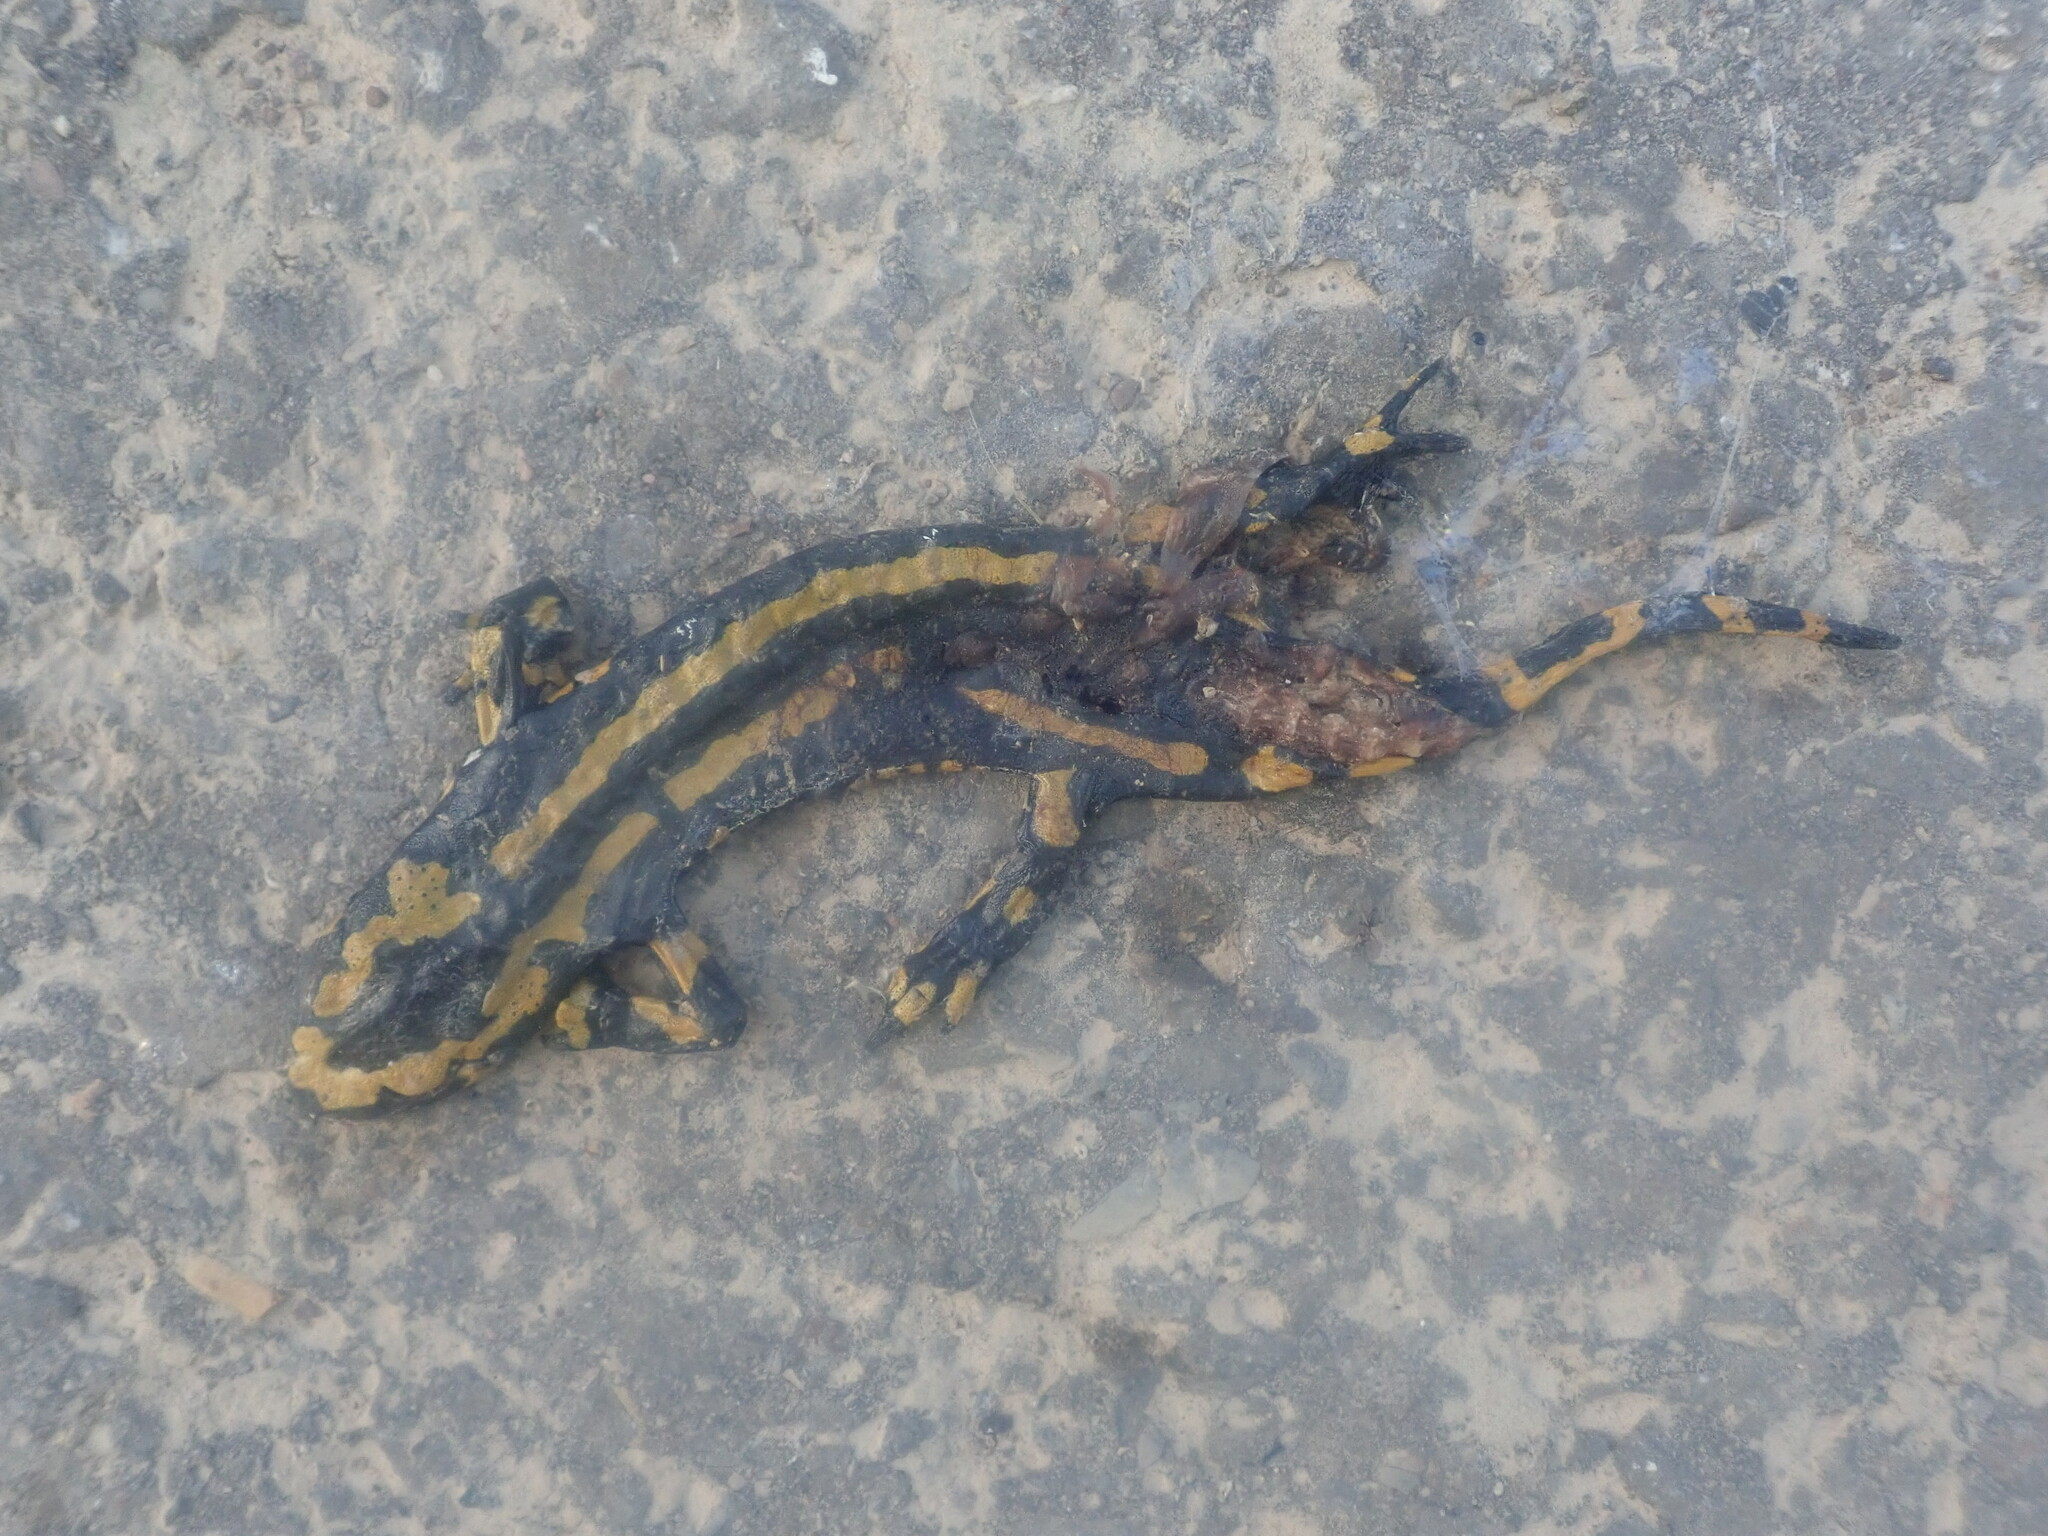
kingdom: Animalia
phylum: Chordata
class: Amphibia
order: Caudata
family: Salamandridae
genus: Salamandra
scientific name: Salamandra salamandra
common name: Fire salamander
